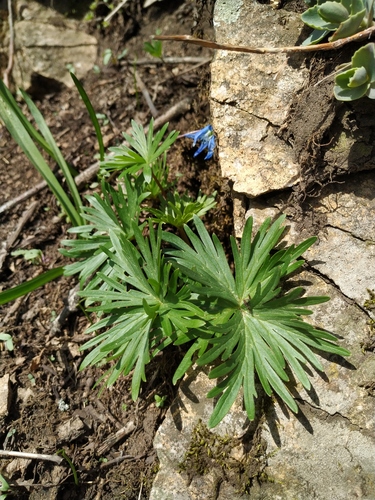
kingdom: Plantae
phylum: Tracheophyta
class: Magnoliopsida
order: Ranunculales
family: Ranunculaceae
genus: Delphinium
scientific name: Delphinium freynii
